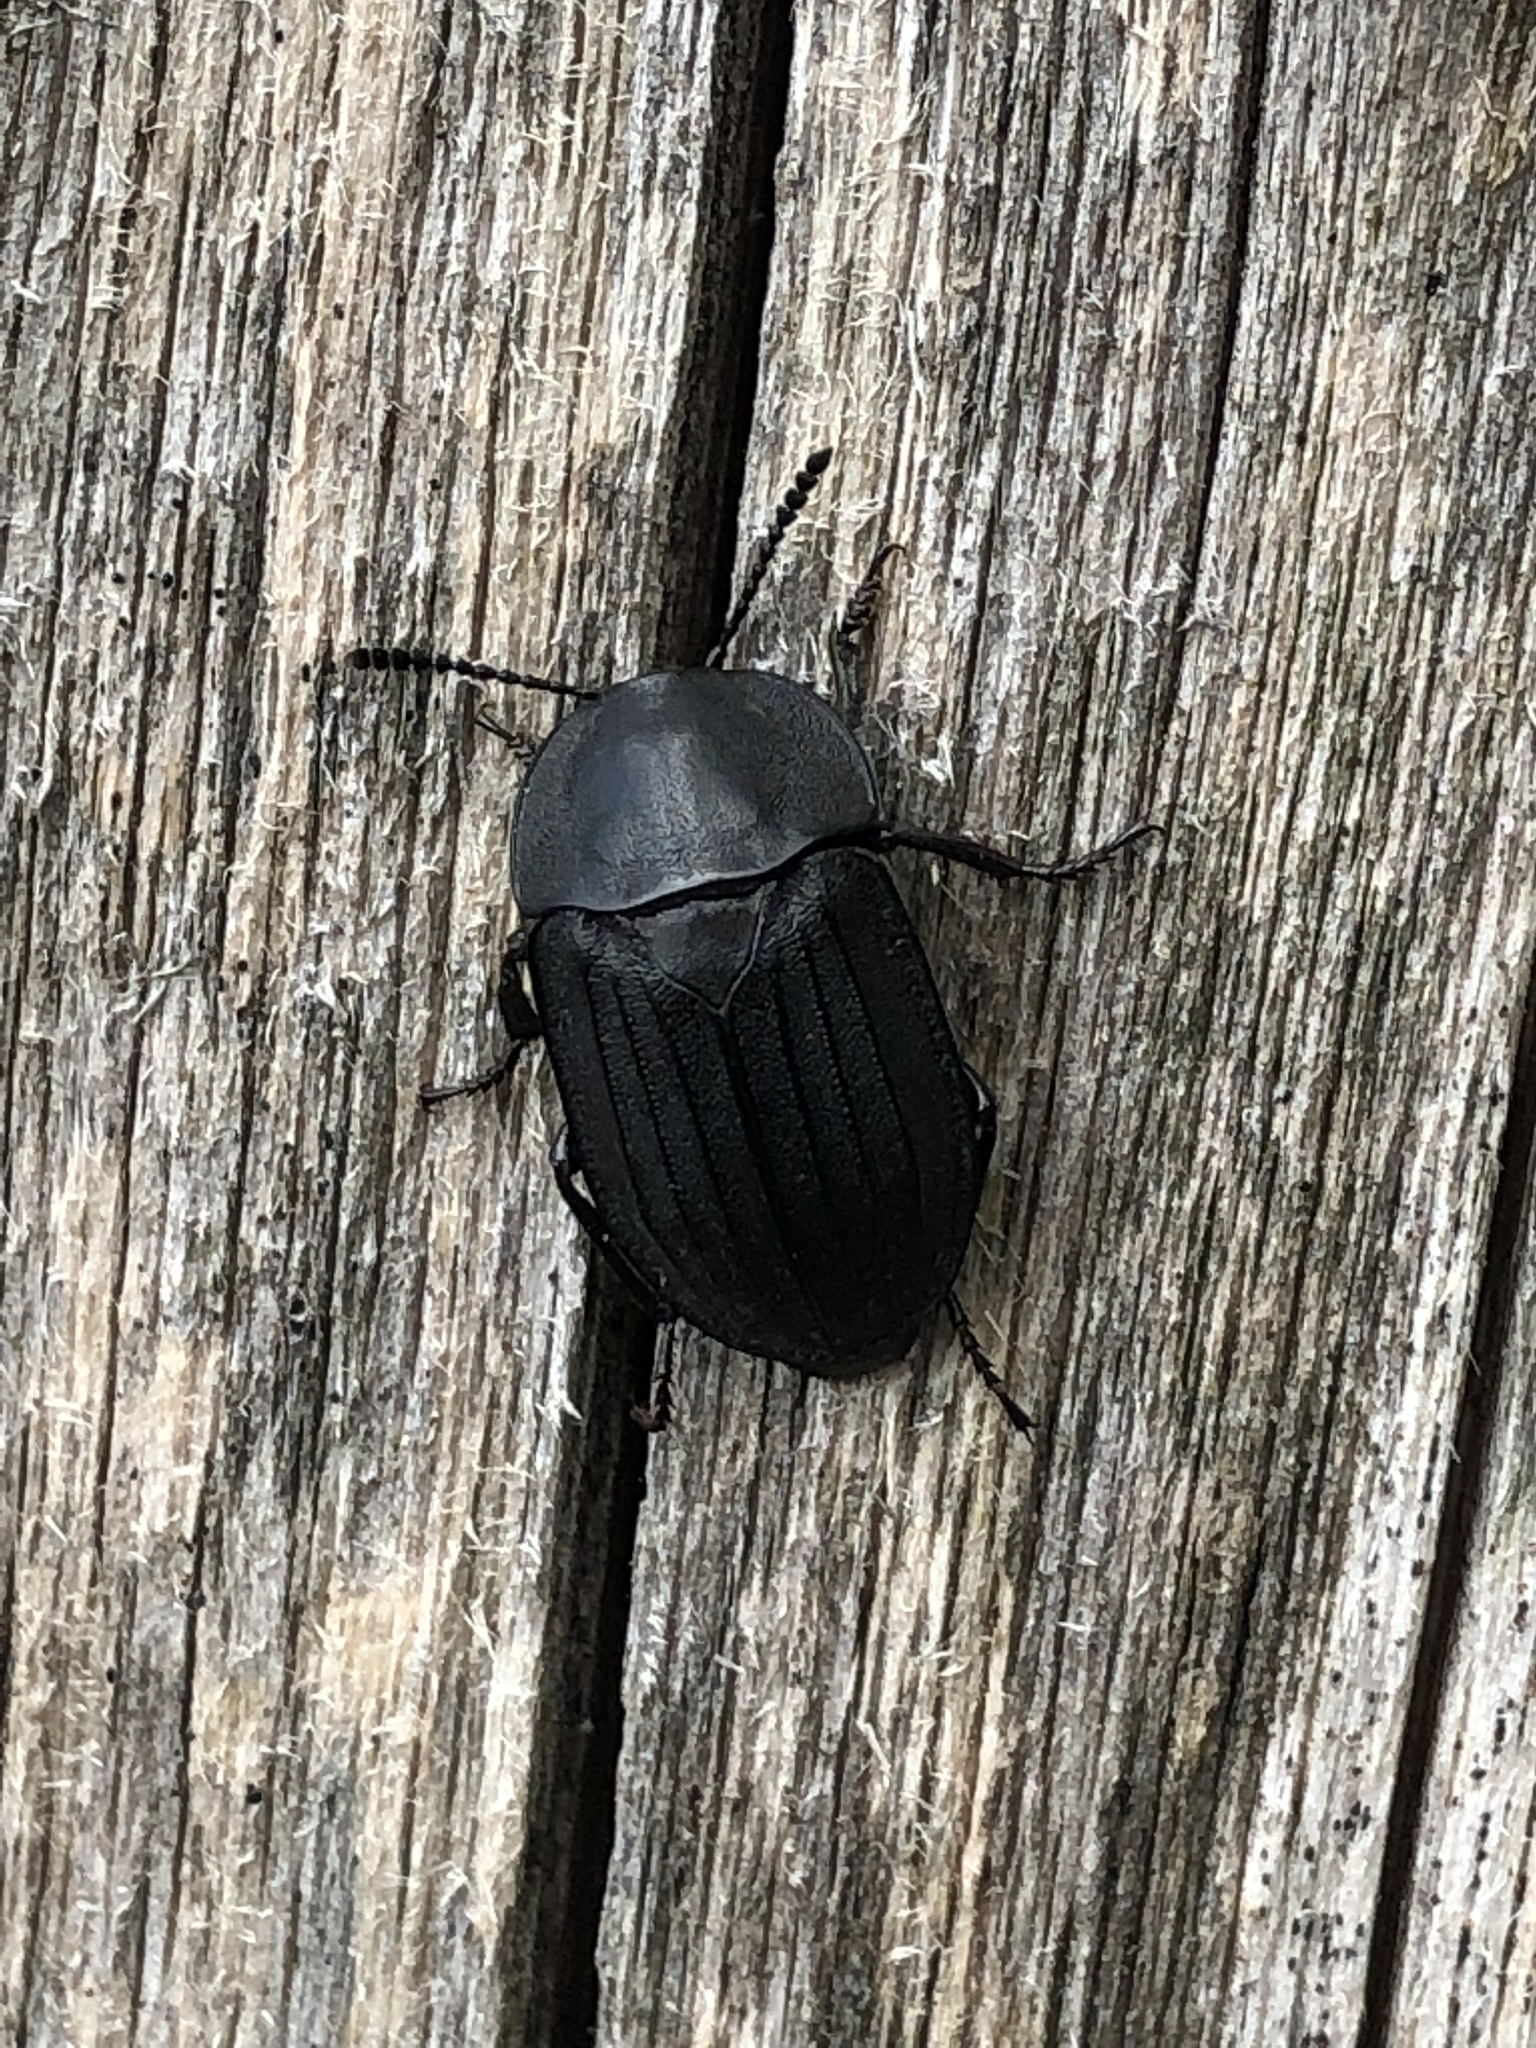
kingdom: Animalia
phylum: Arthropoda
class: Insecta
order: Coleoptera
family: Staphylinidae
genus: Silpha
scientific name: Silpha tristis
